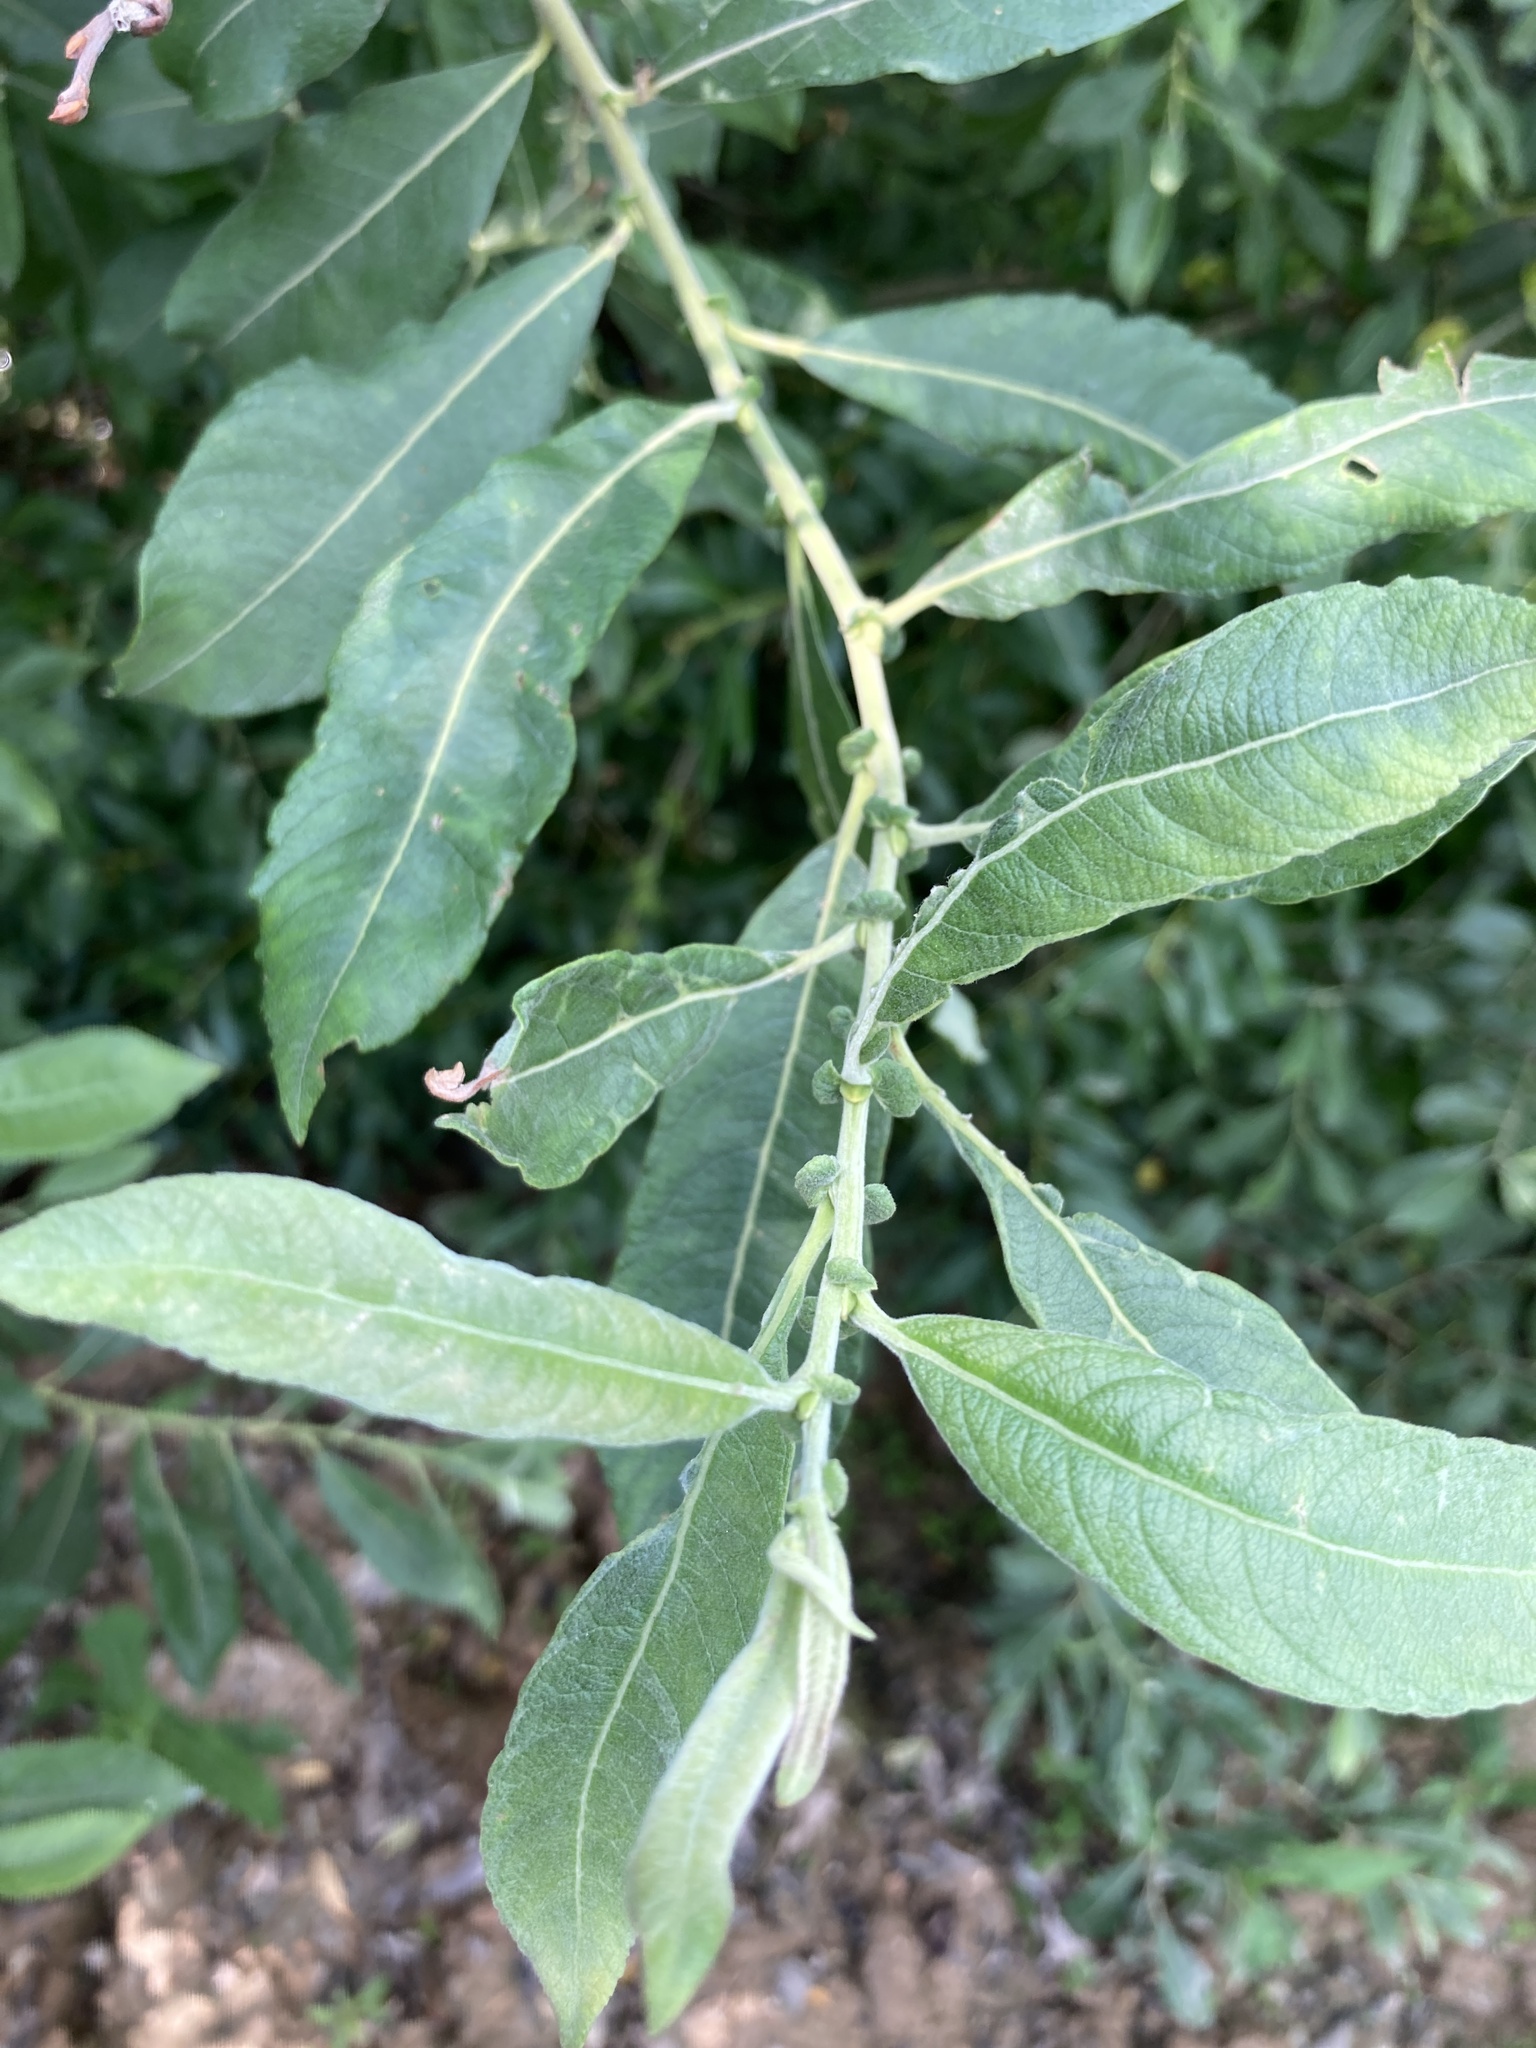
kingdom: Plantae
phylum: Tracheophyta
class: Magnoliopsida
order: Malpighiales
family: Salicaceae
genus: Salix
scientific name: Salix cinerea
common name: Common sallow
